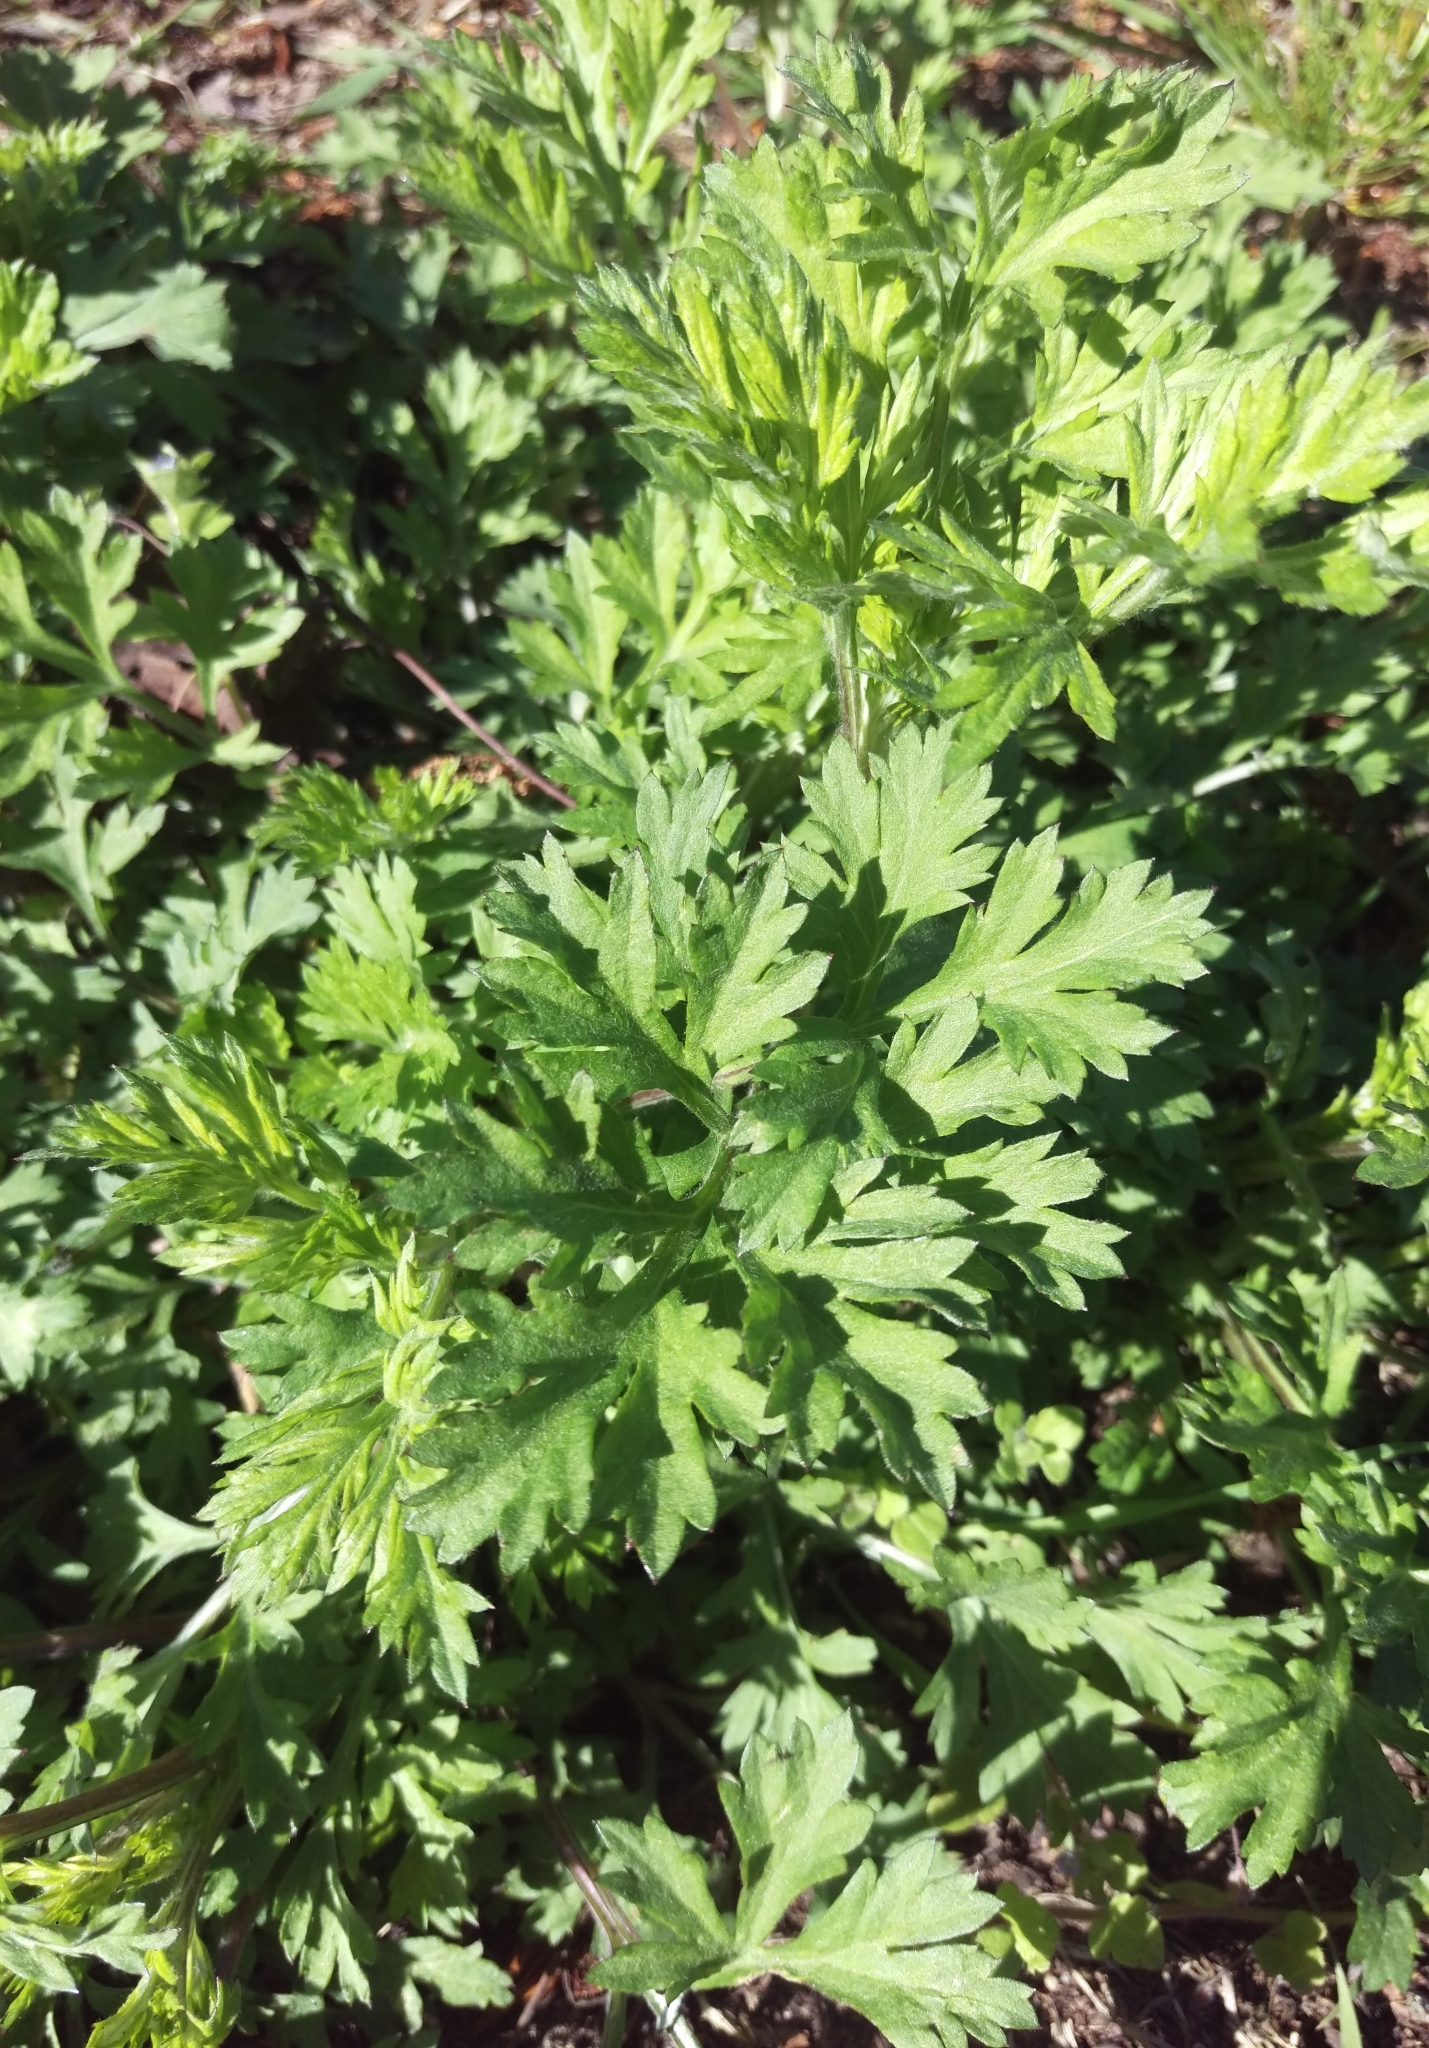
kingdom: Plantae
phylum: Tracheophyta
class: Magnoliopsida
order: Asterales
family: Asteraceae
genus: Artemisia
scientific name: Artemisia vulgaris
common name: Mugwort
